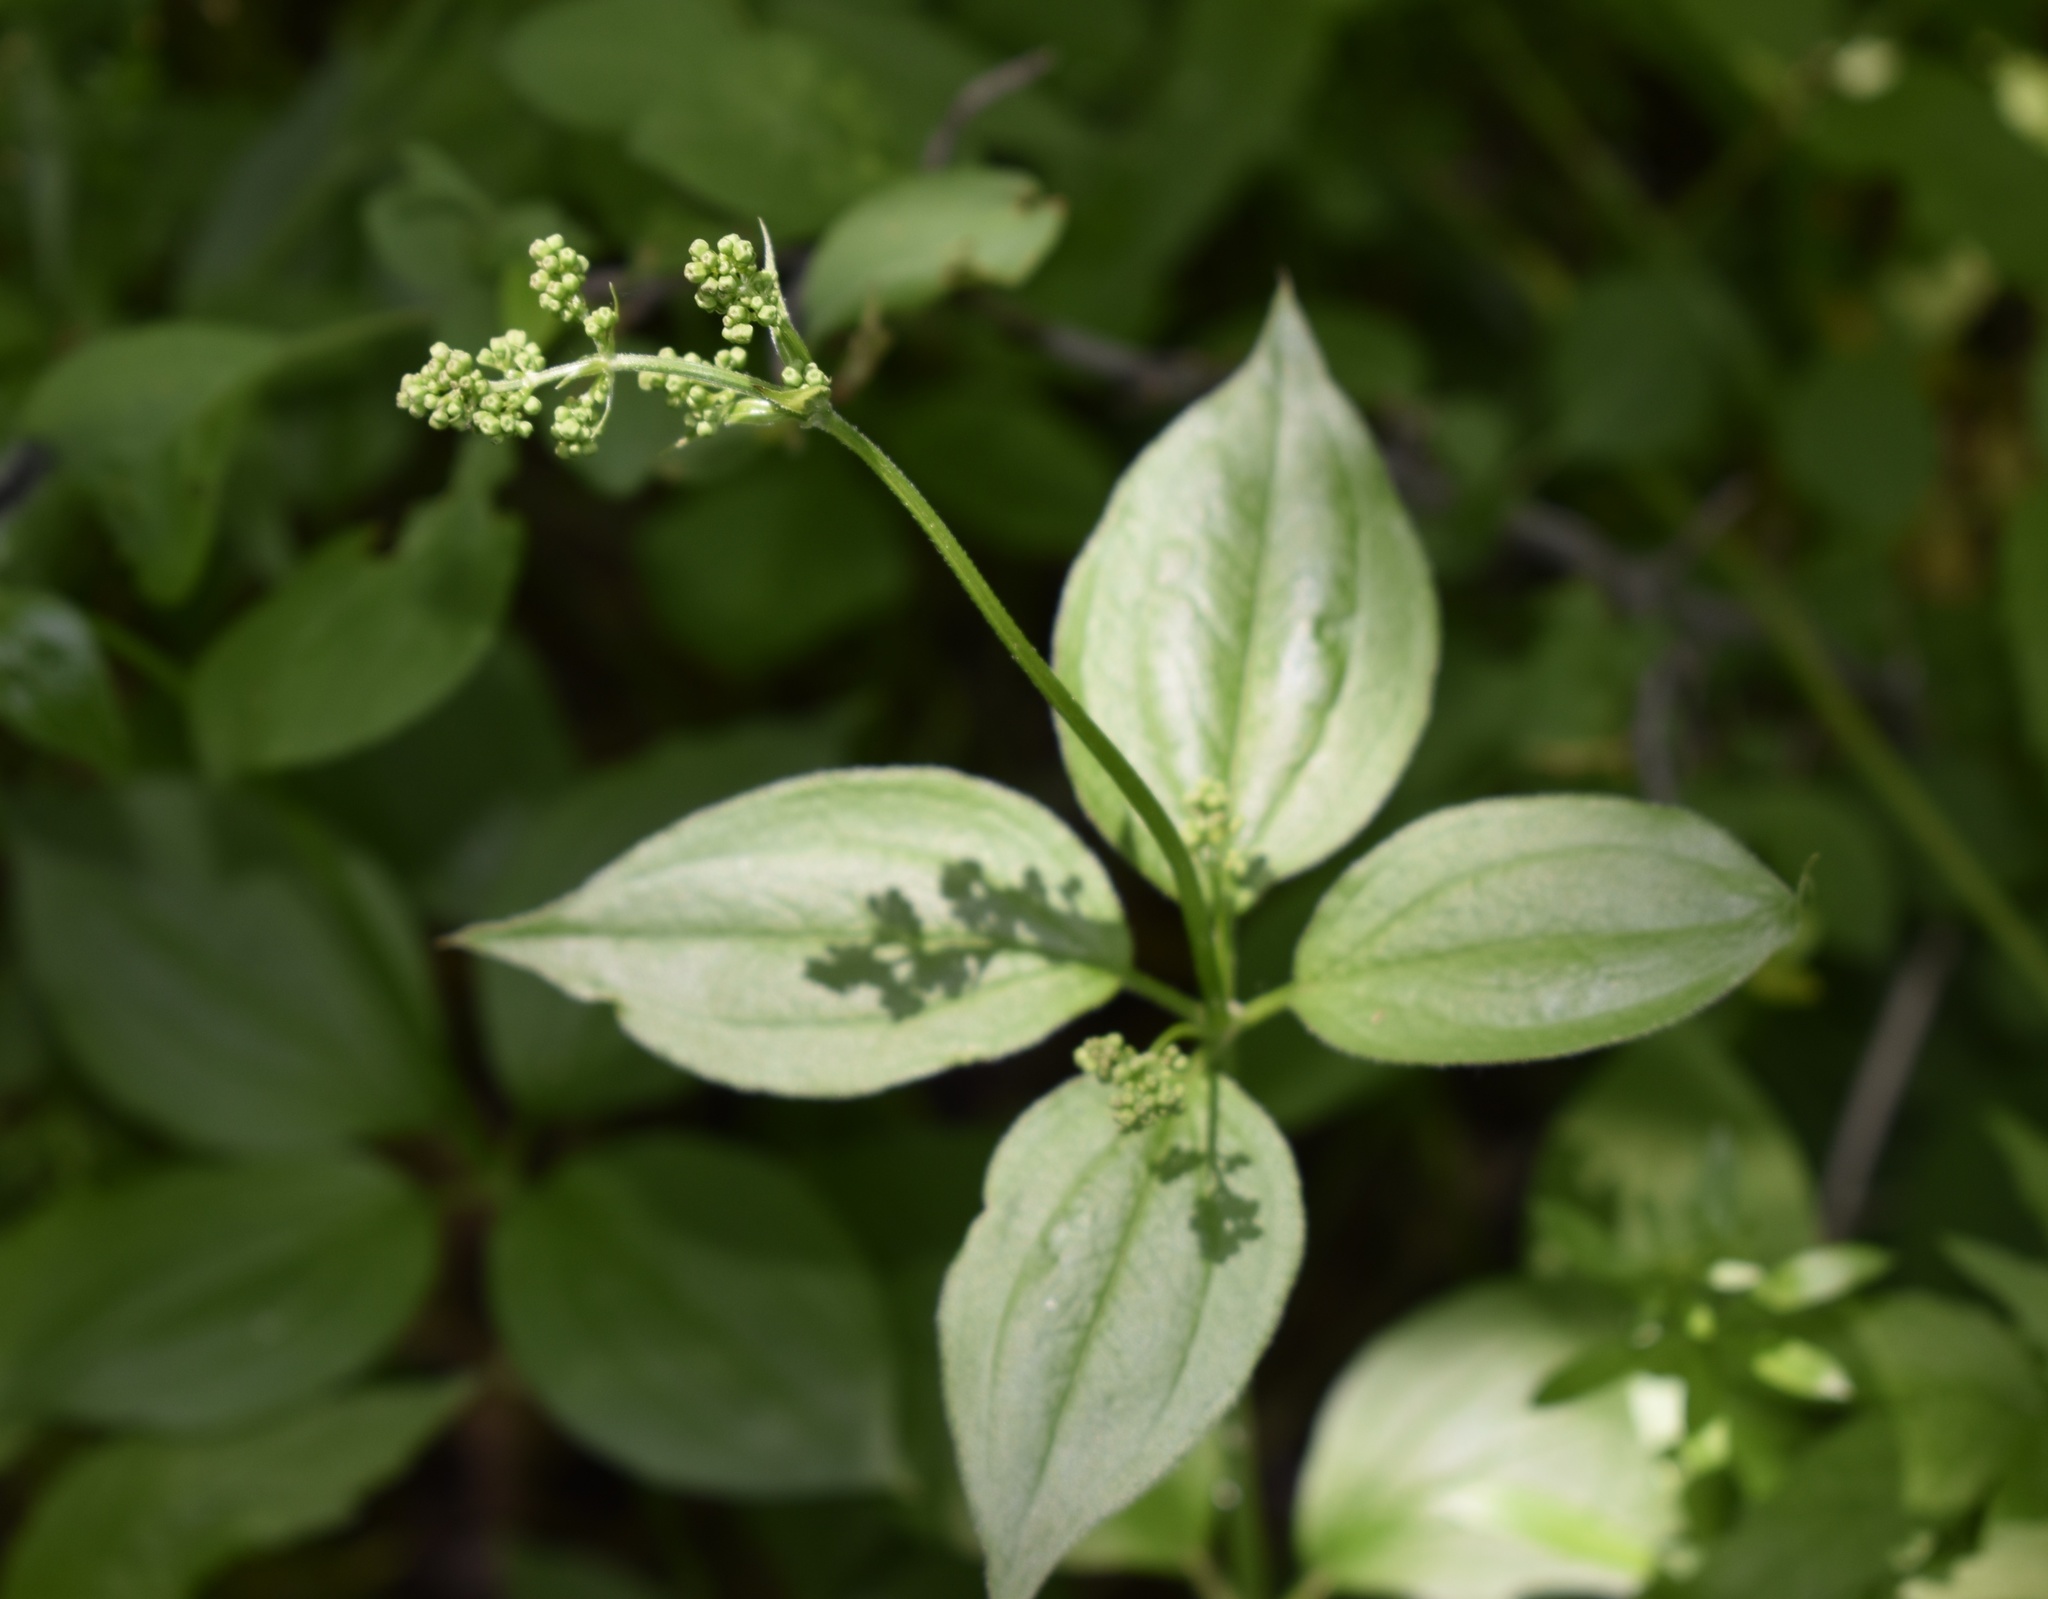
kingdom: Plantae
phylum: Tracheophyta
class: Magnoliopsida
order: Gentianales
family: Rubiaceae
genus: Rubia
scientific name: Rubia chinensis
